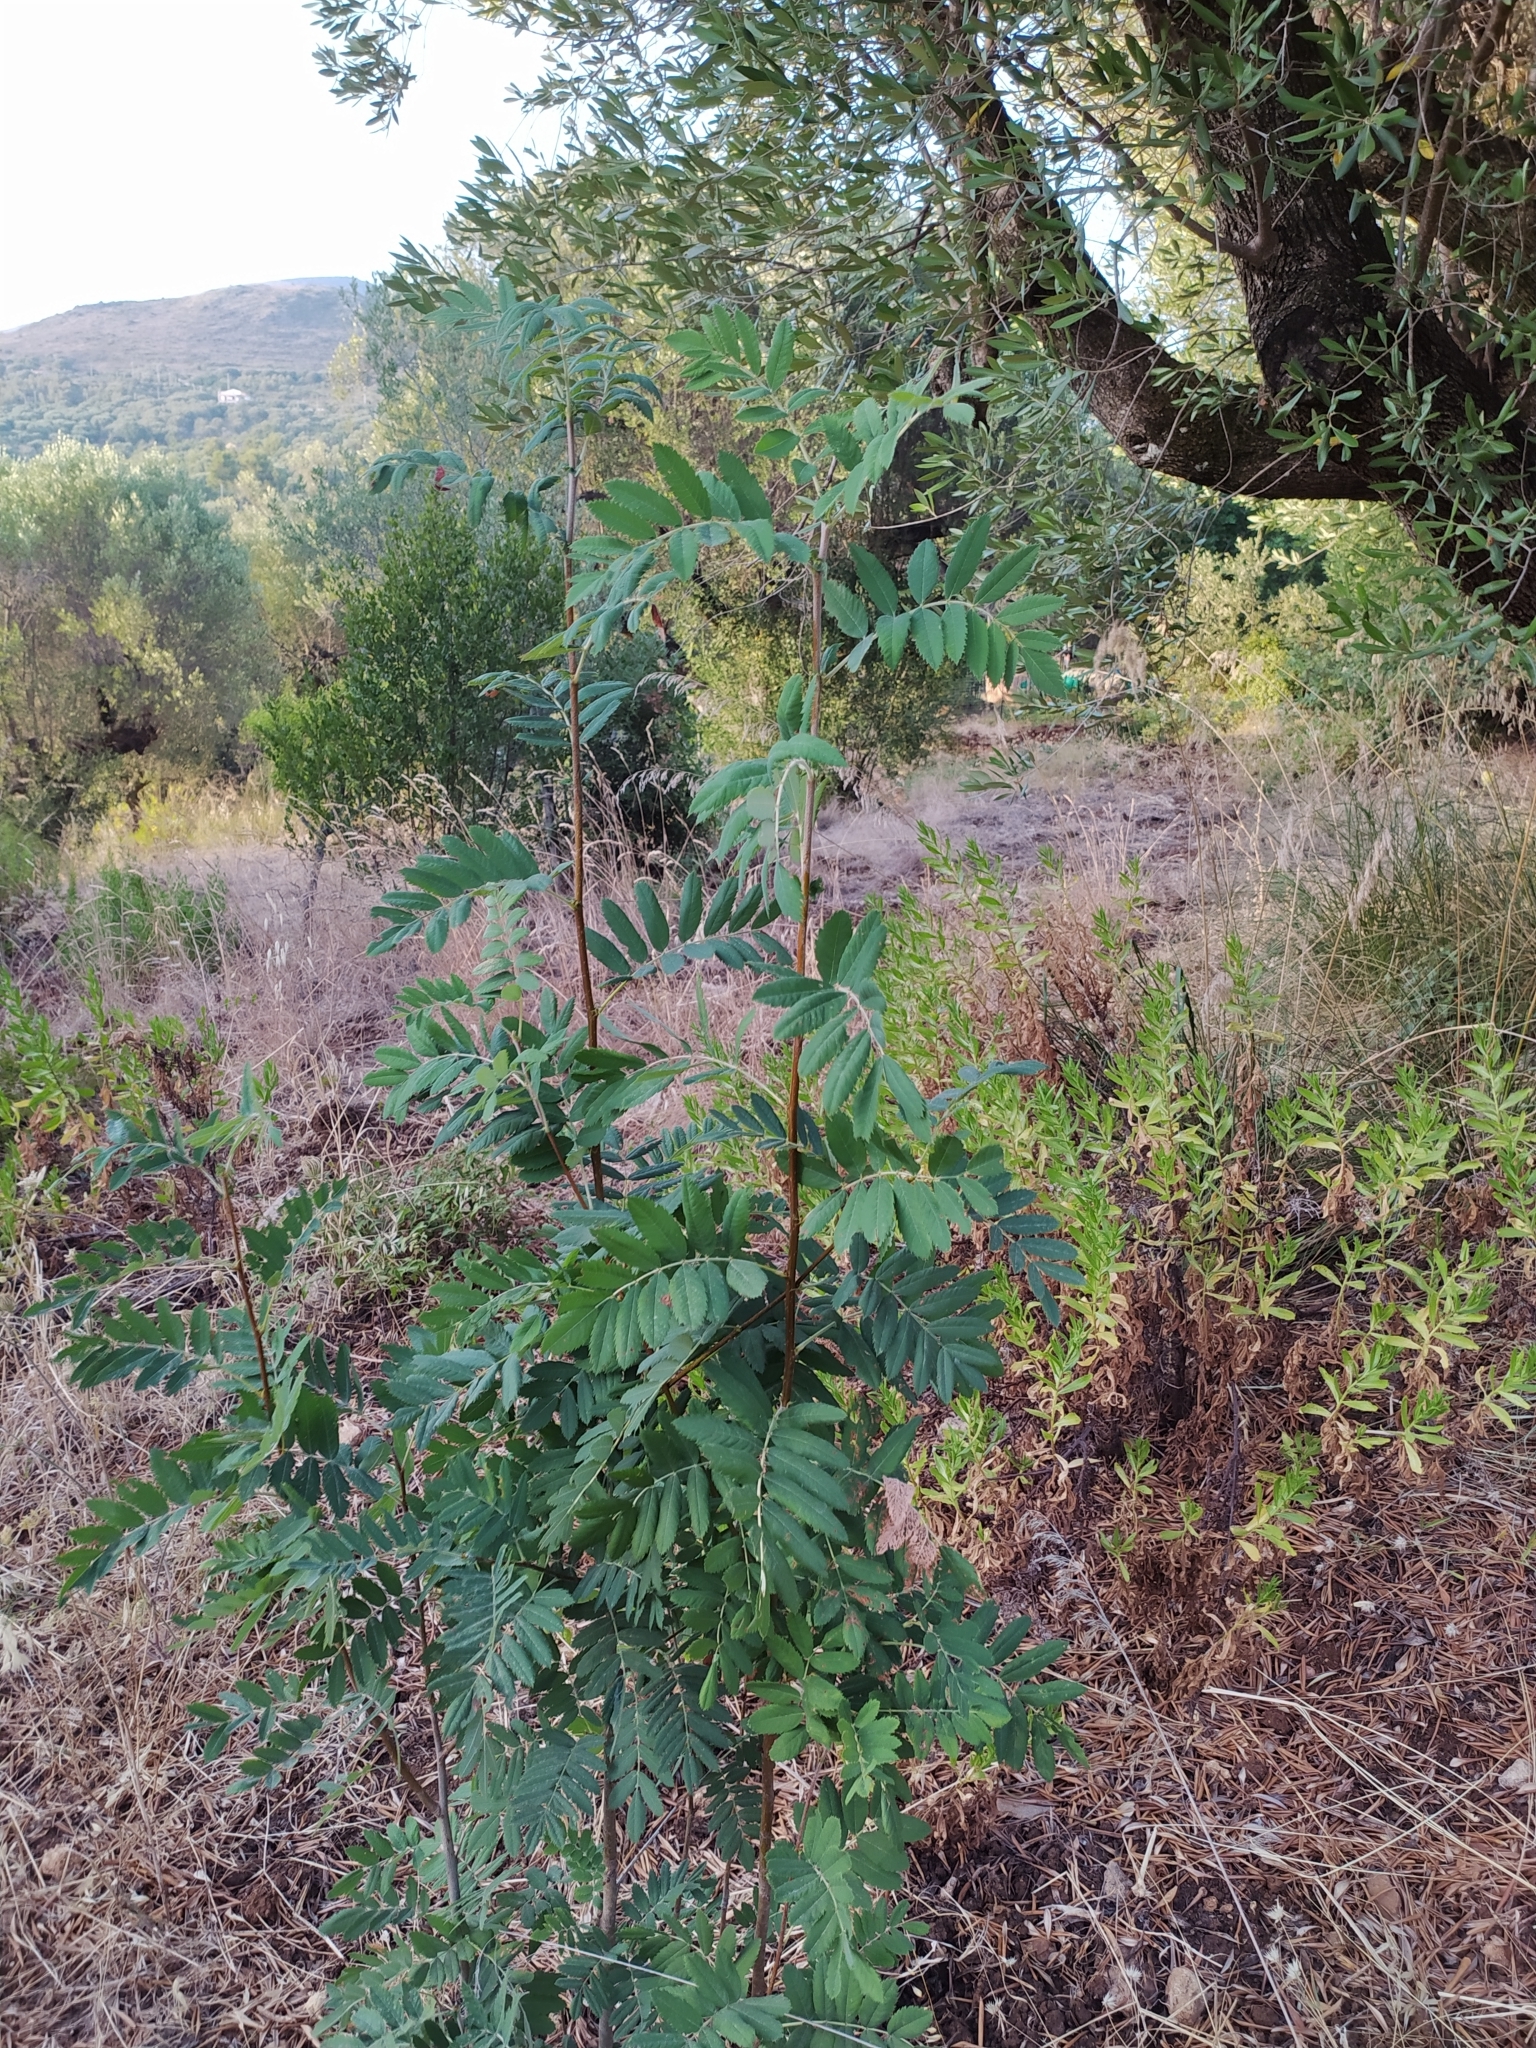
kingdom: Plantae
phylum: Tracheophyta
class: Magnoliopsida
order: Rosales
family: Rosaceae
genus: Cormus
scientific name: Cormus domestica
